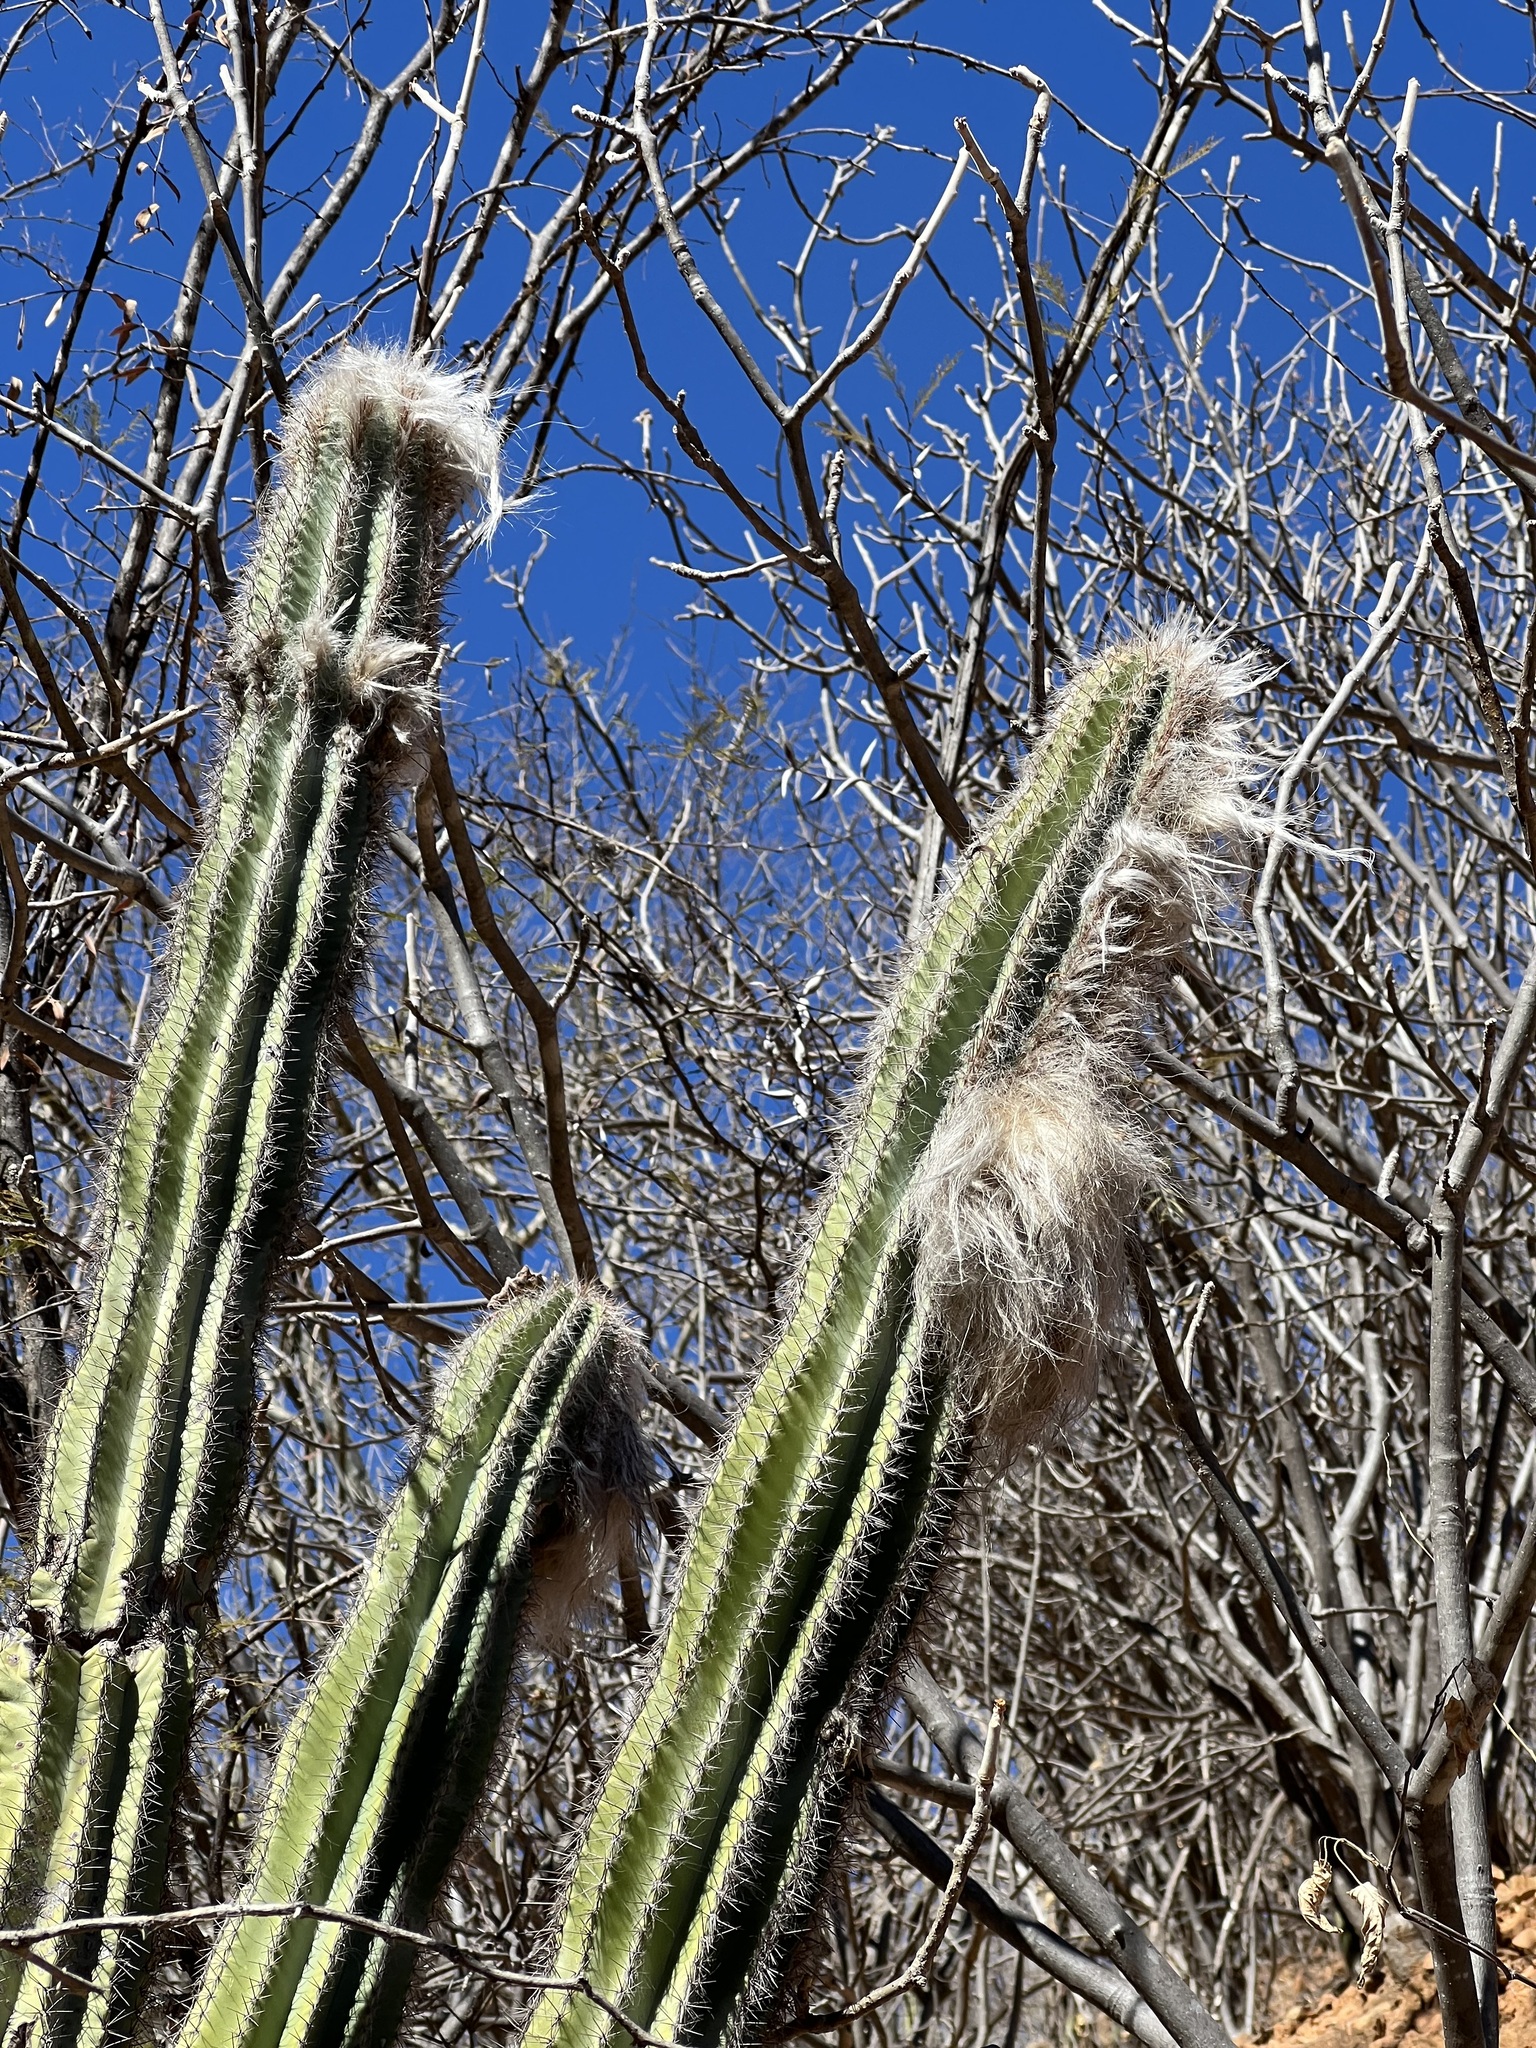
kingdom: Plantae
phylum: Tracheophyta
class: Magnoliopsida
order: Caryophyllales
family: Cactaceae
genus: Pilosocereus
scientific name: Pilosocereus alensis
